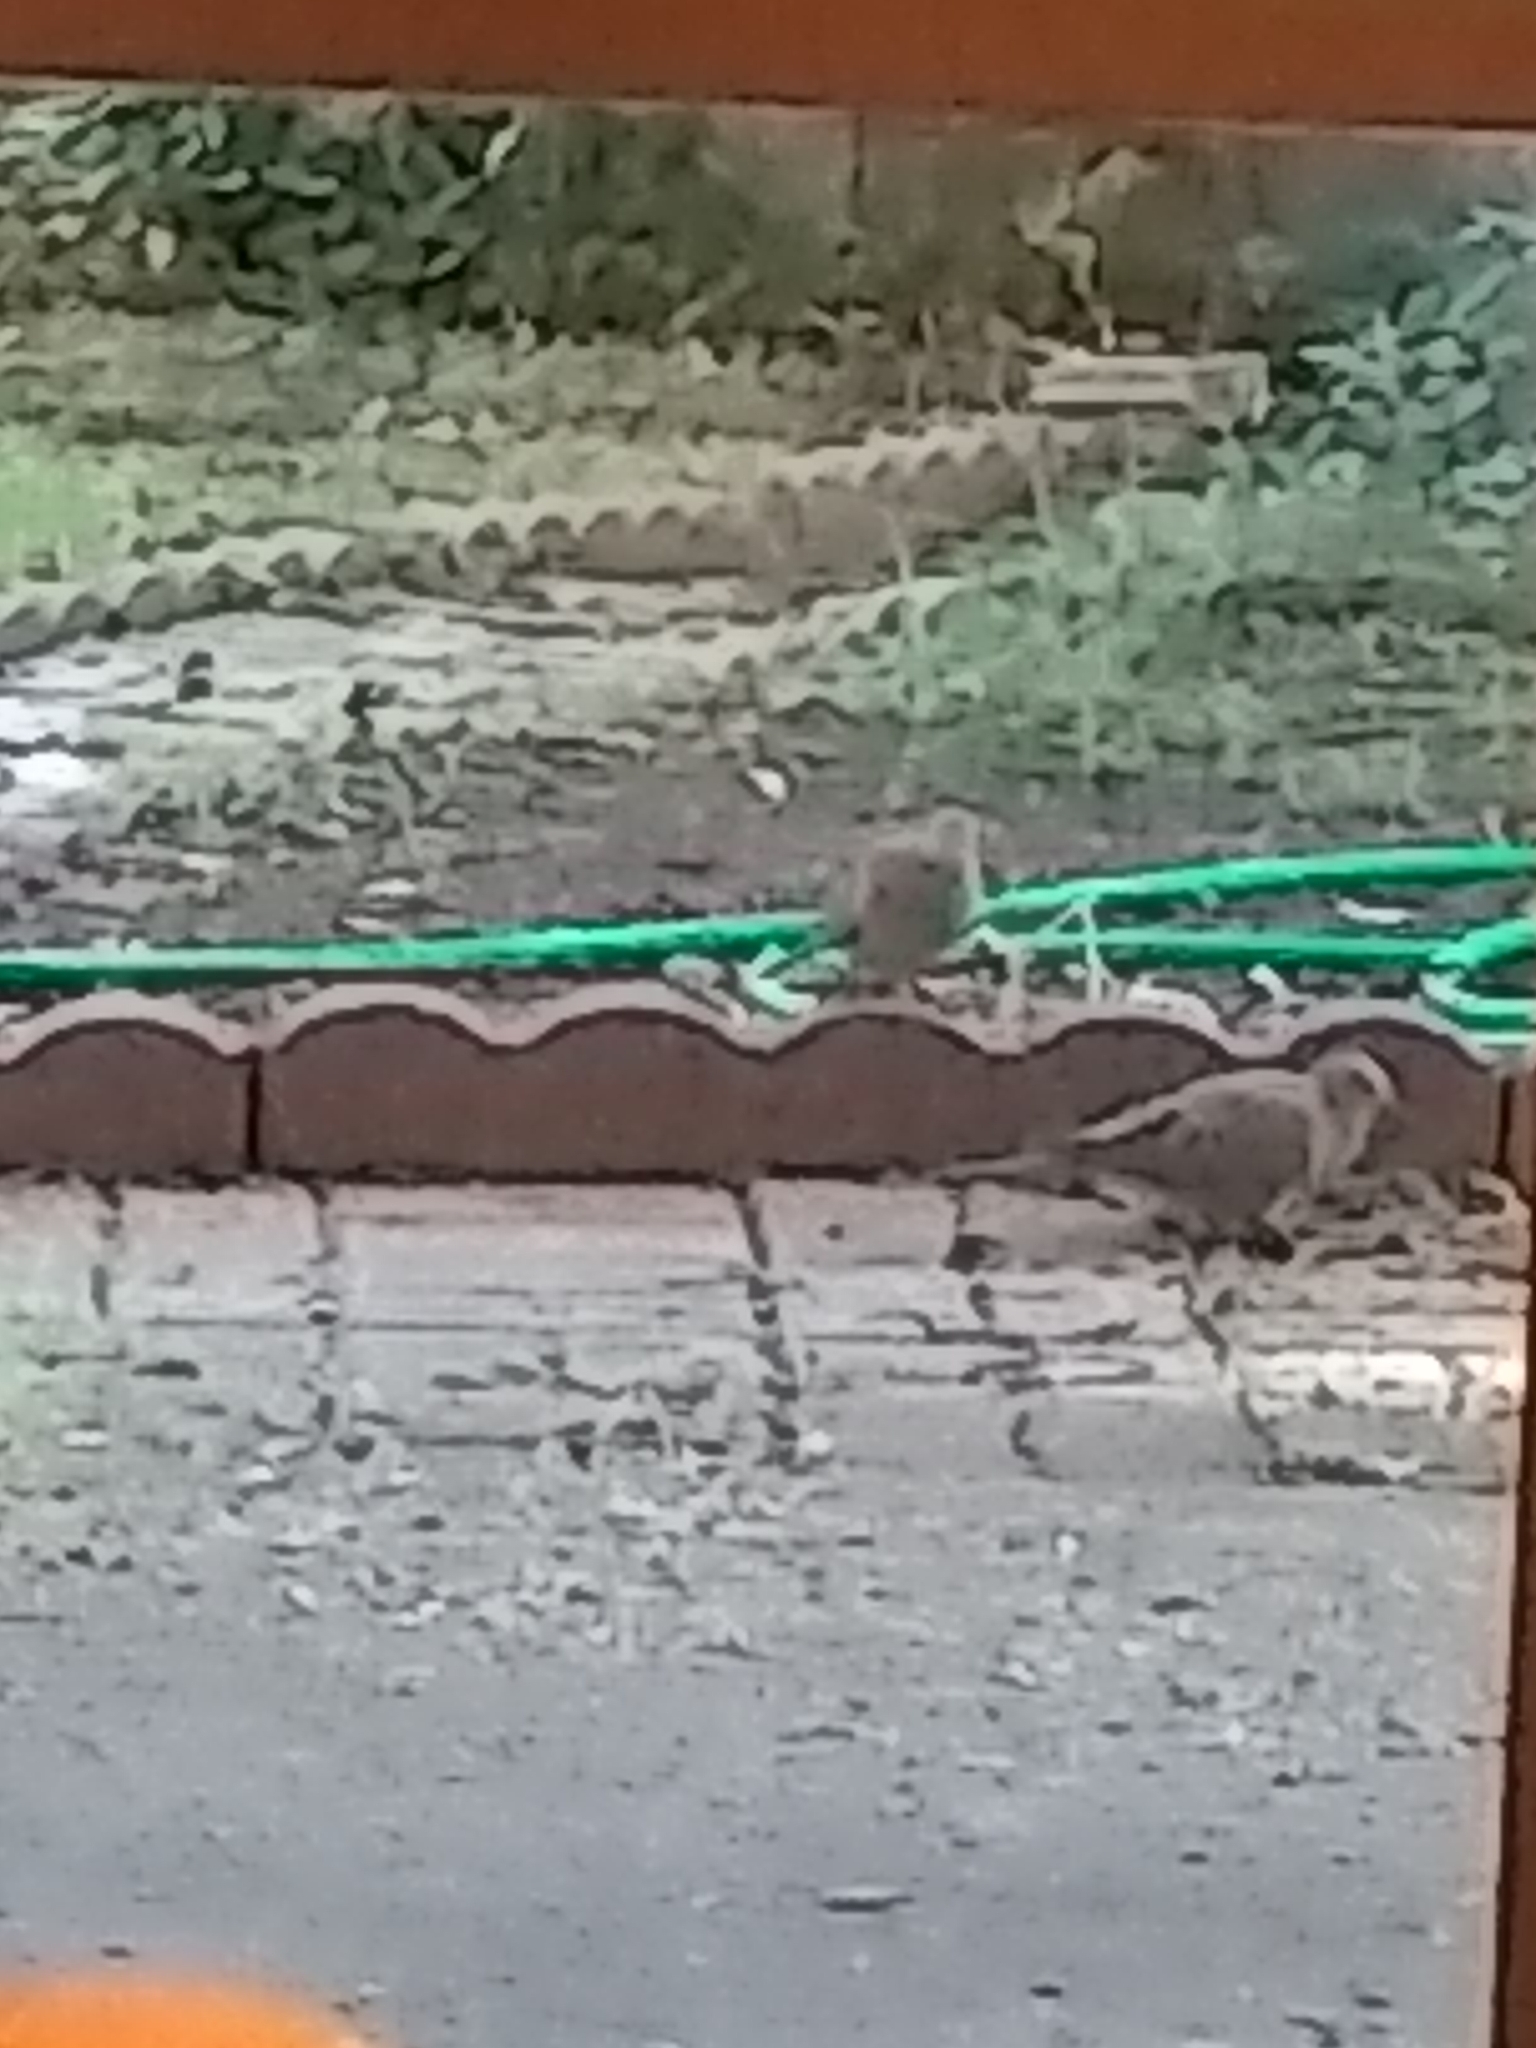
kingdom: Animalia
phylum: Chordata
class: Aves
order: Columbiformes
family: Columbidae
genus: Zenaida
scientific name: Zenaida macroura
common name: Mourning dove
